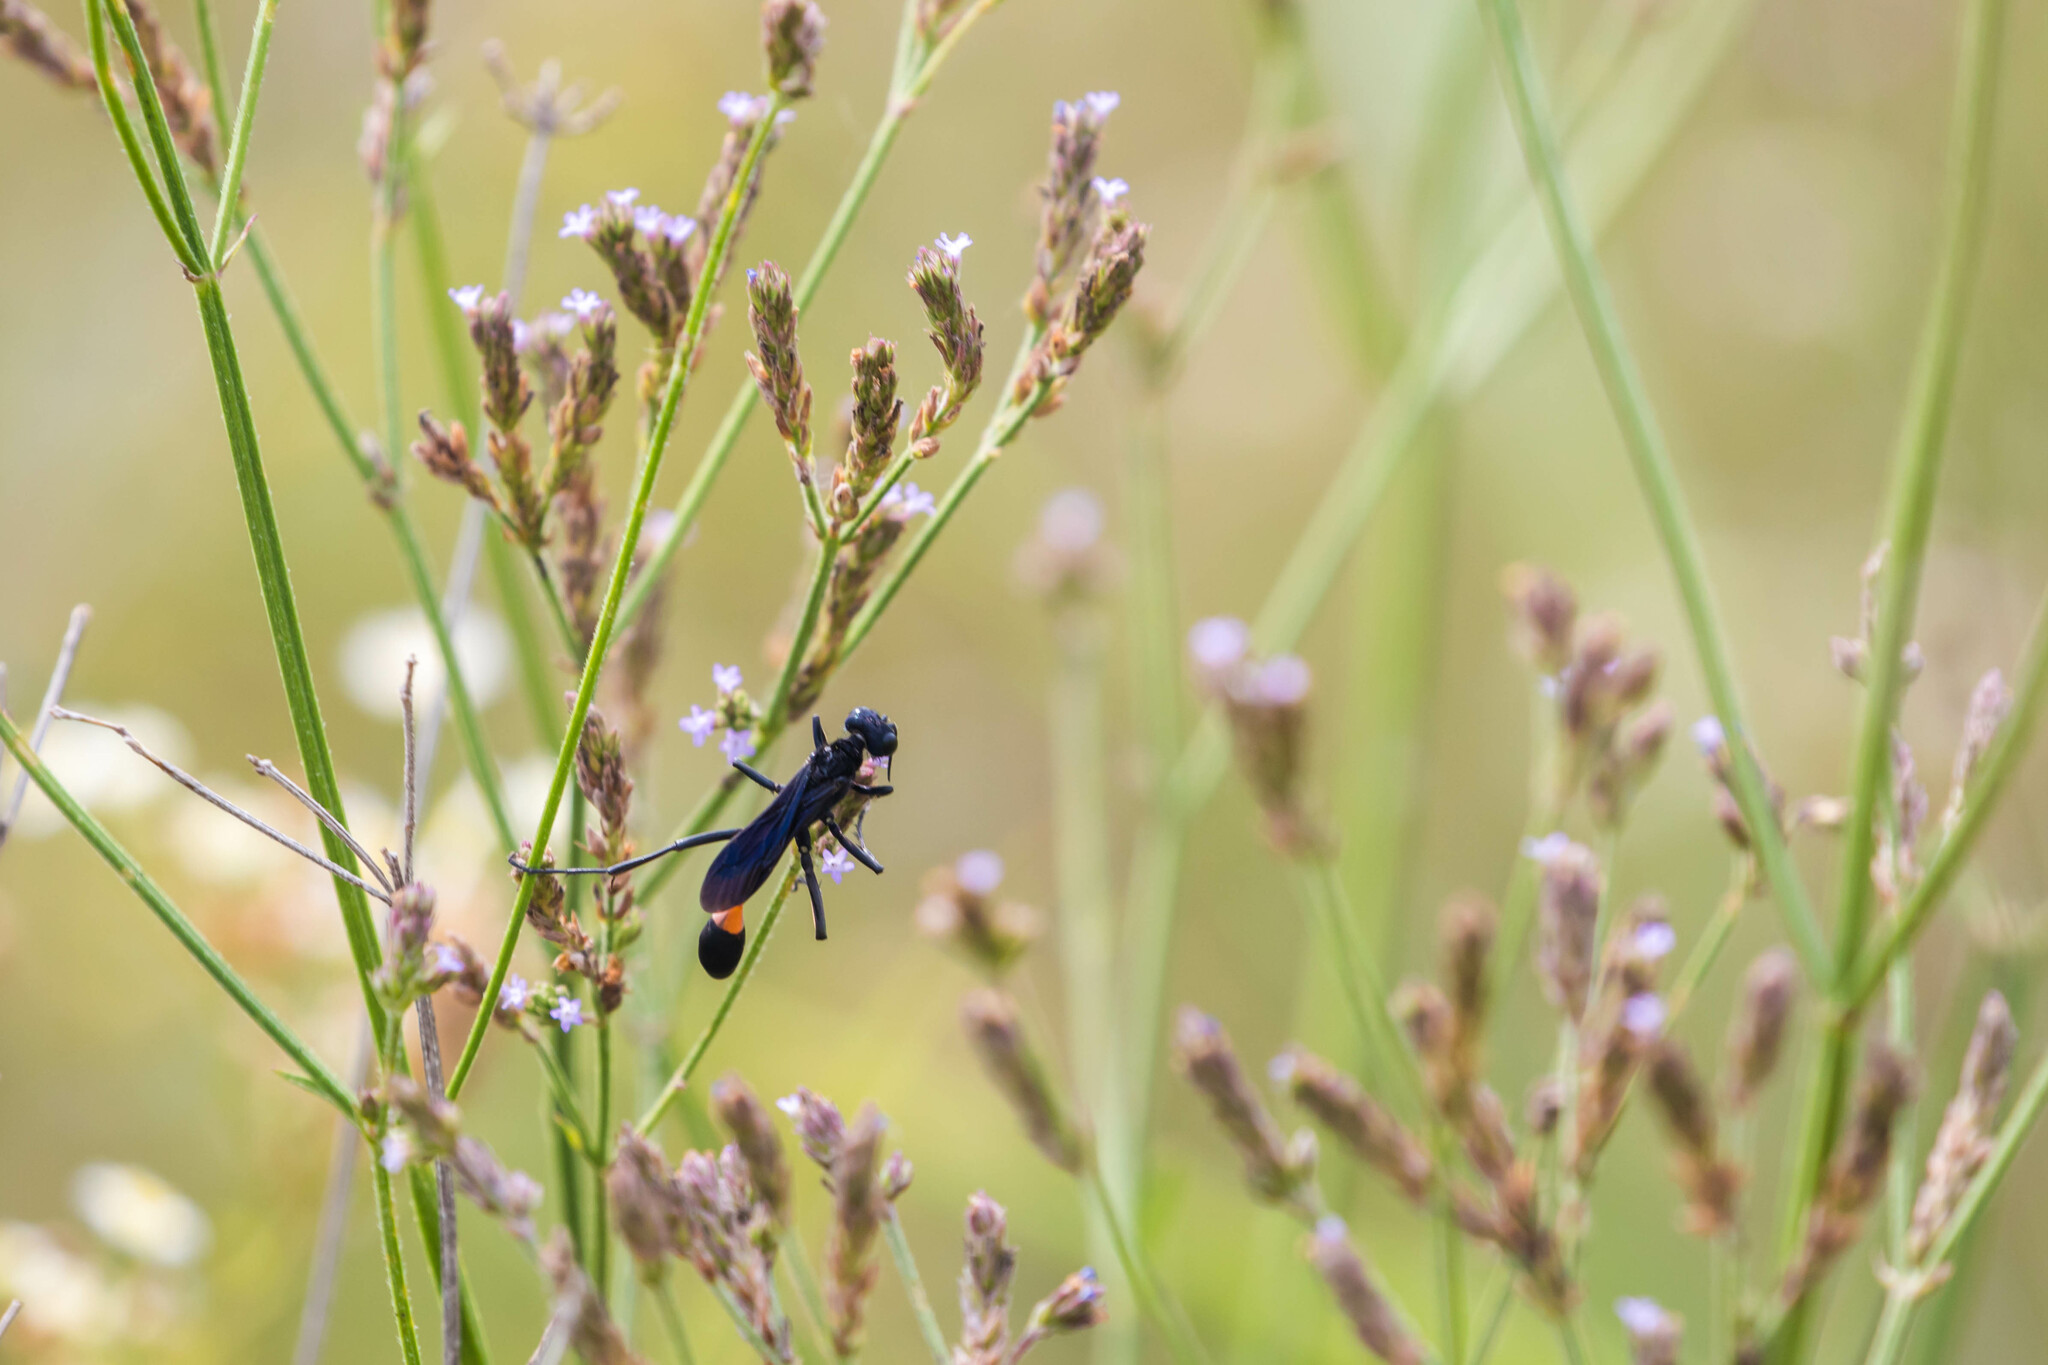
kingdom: Animalia
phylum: Arthropoda
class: Insecta
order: Hymenoptera
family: Sphecidae
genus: Ammophila
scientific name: Ammophila nigricans
